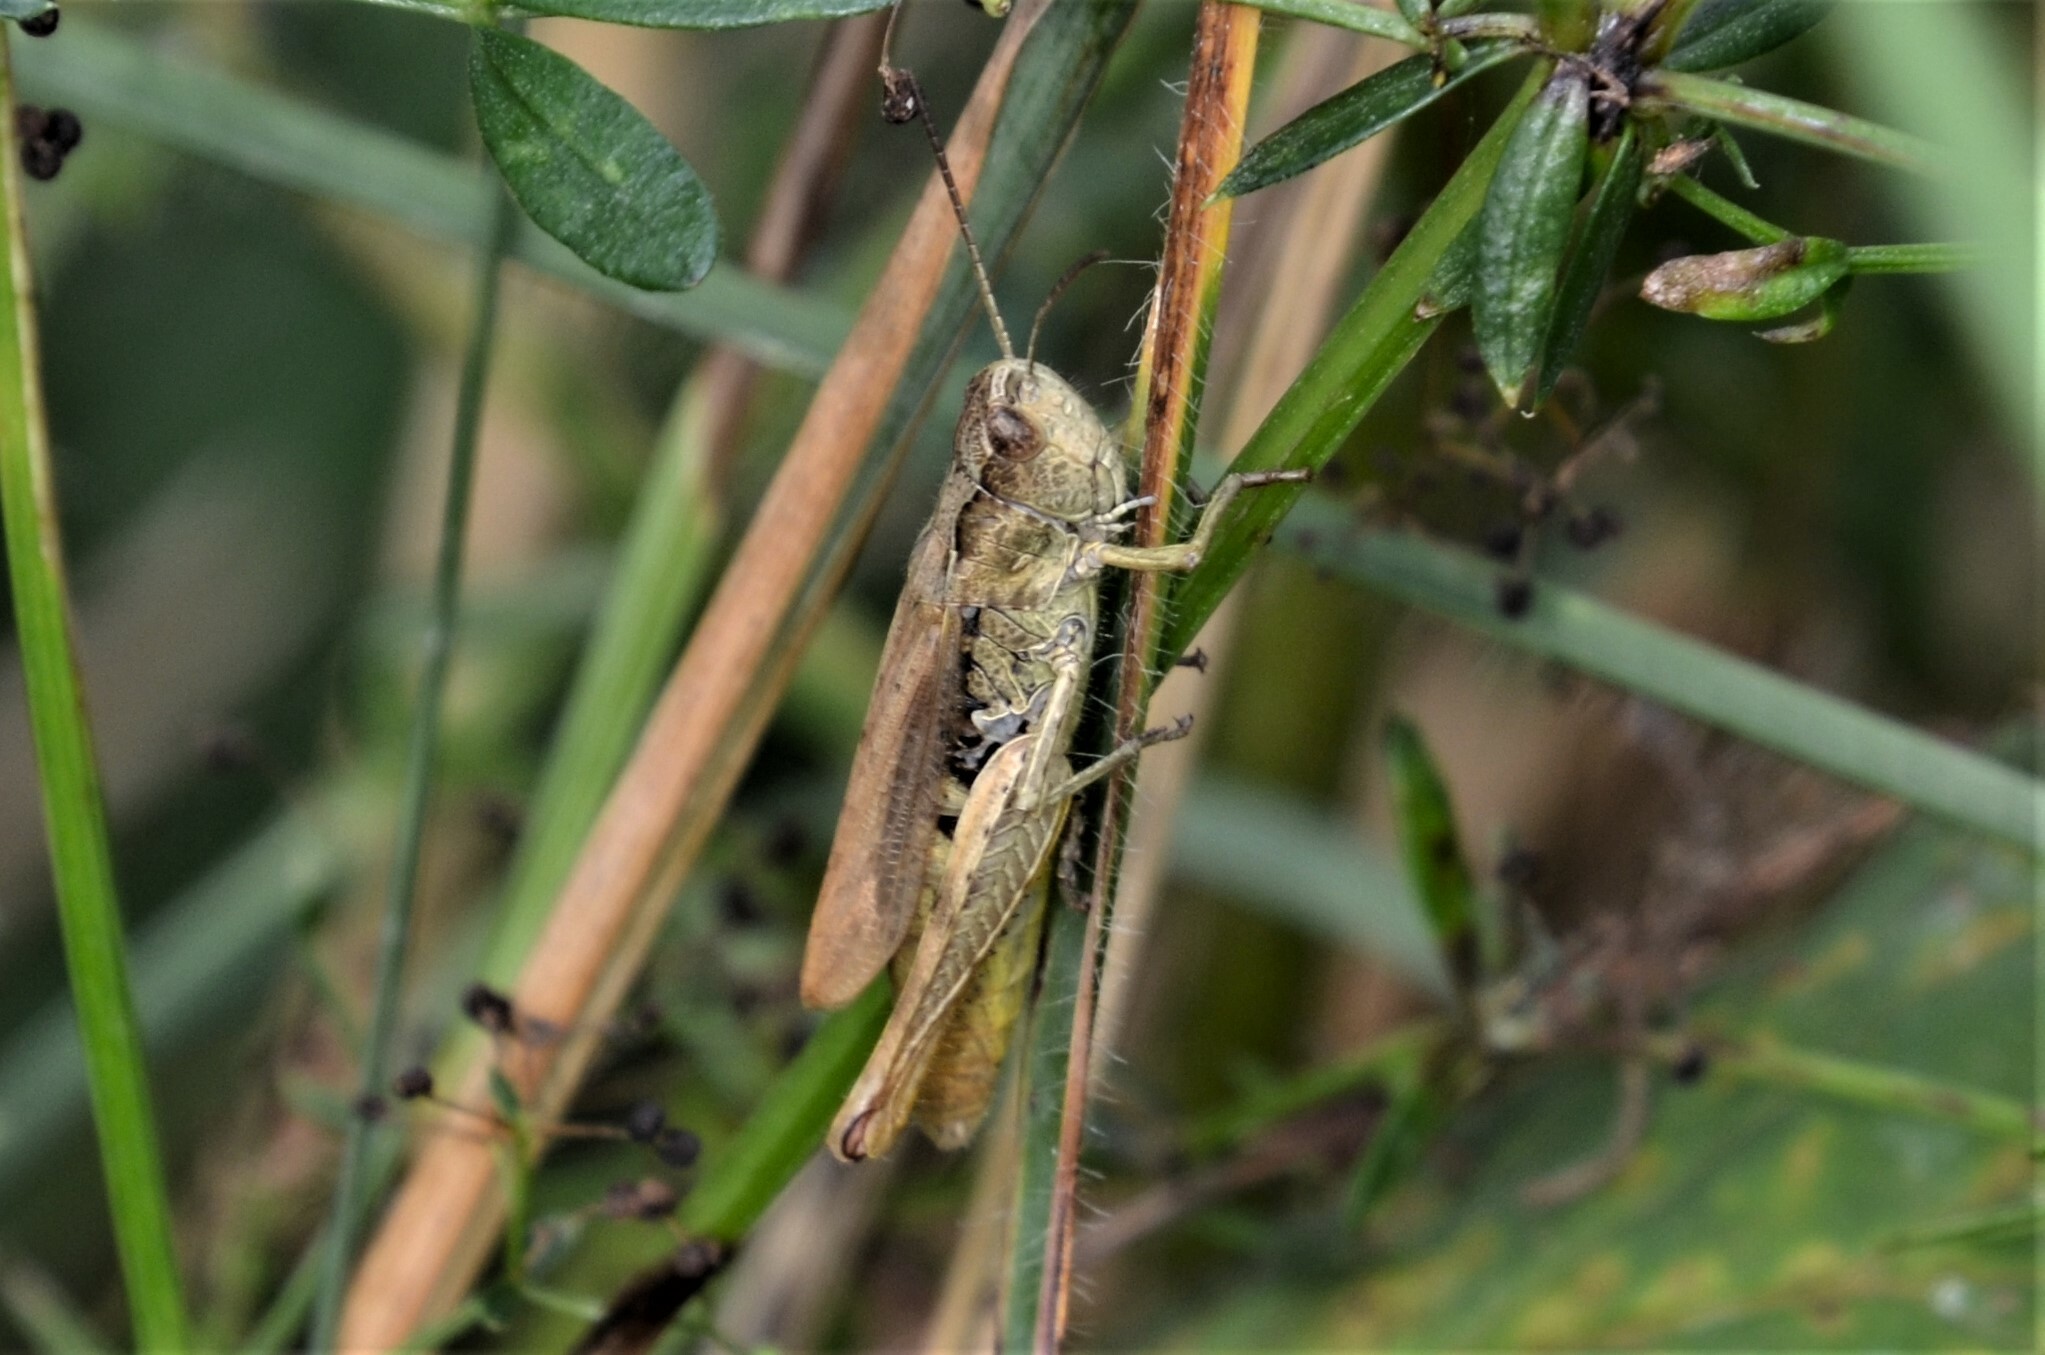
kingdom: Animalia
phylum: Arthropoda
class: Insecta
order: Orthoptera
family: Acrididae
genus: Chorthippus
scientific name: Chorthippus apricarius
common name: Upland field grasshopper
